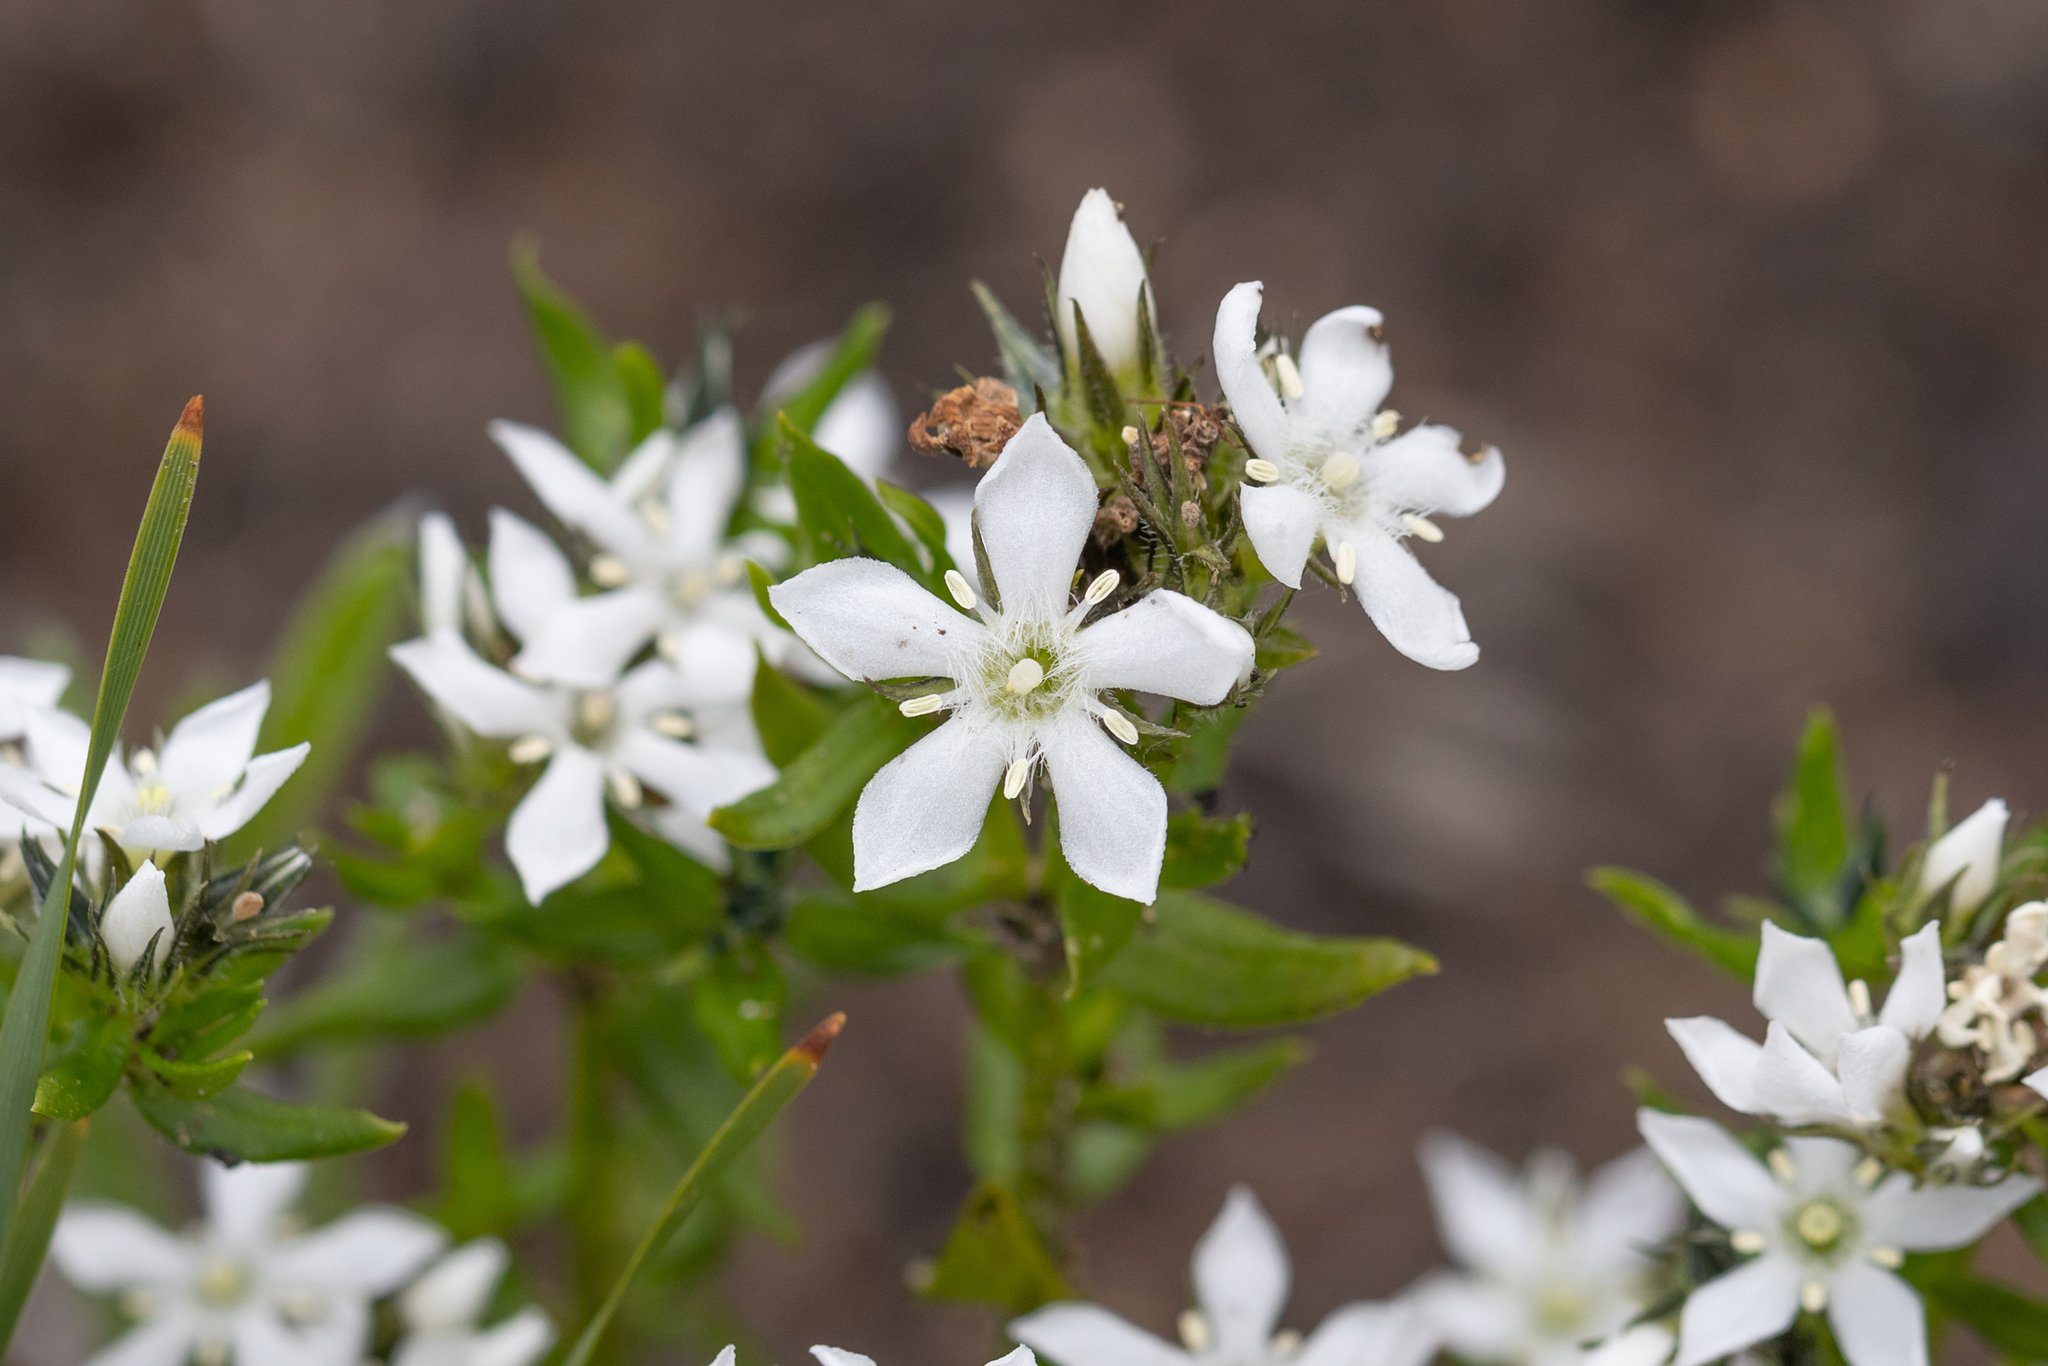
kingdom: Plantae
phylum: Tracheophyta
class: Magnoliopsida
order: Gentianales
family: Loganiaceae
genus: Orianthera
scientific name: Orianthera serpyllifolia
